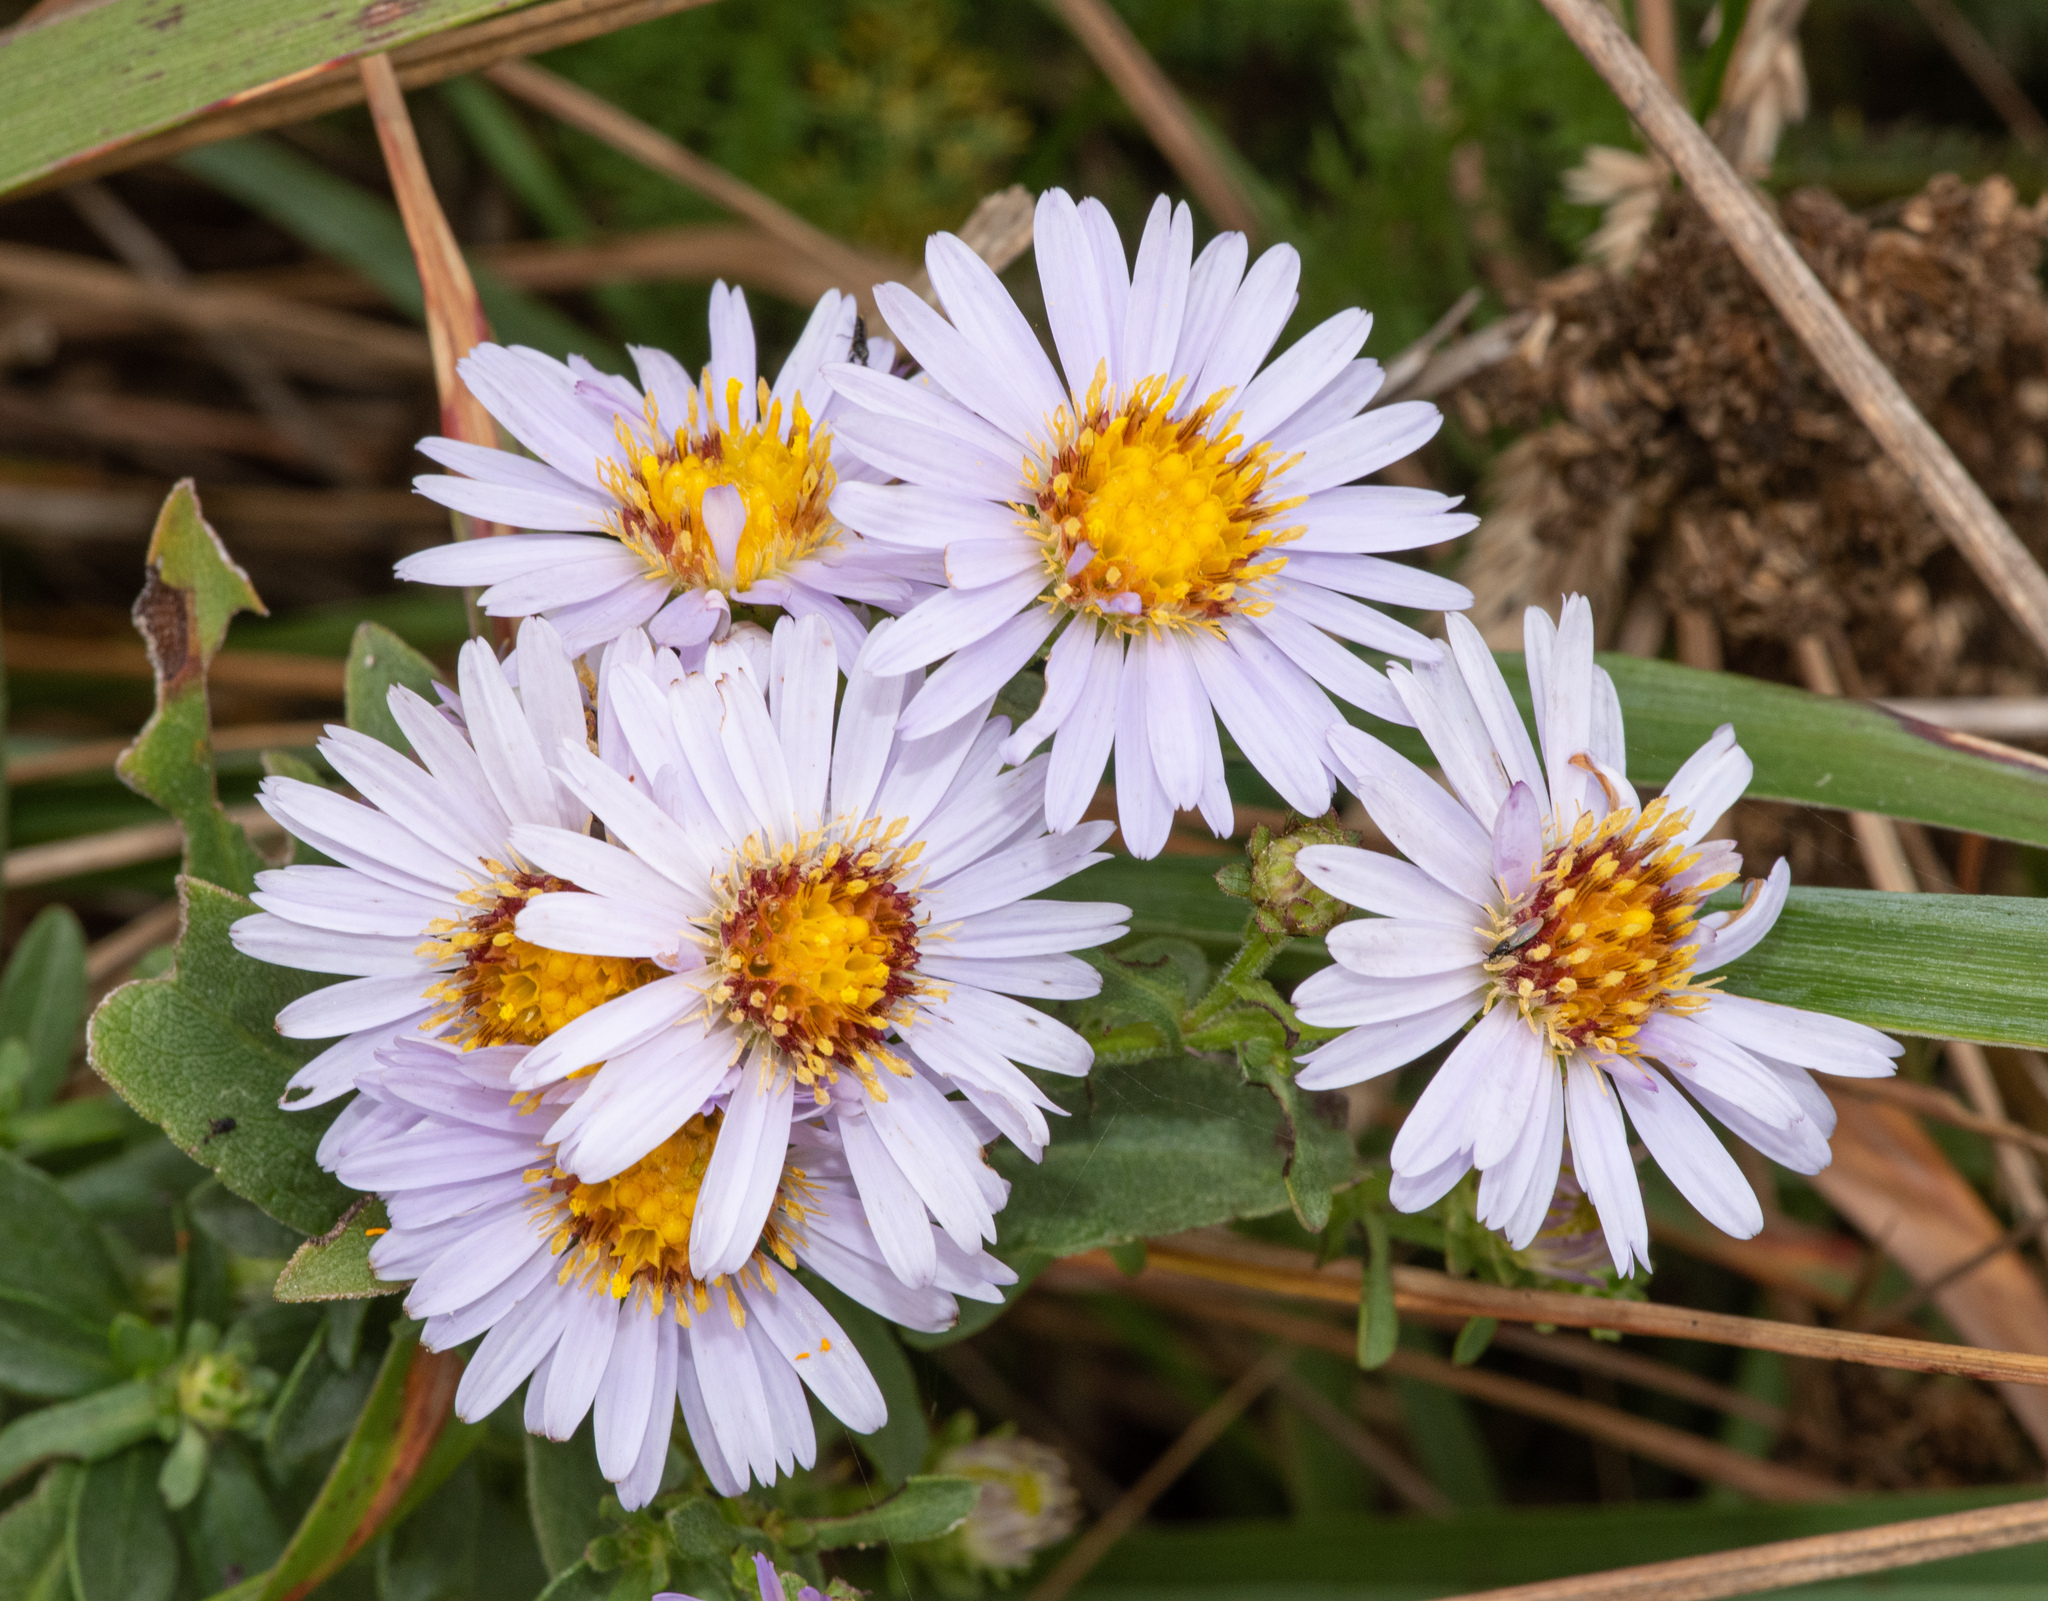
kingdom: Plantae
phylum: Tracheophyta
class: Magnoliopsida
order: Asterales
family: Asteraceae
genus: Symphyotrichum
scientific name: Symphyotrichum chilense
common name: Pacific aster
